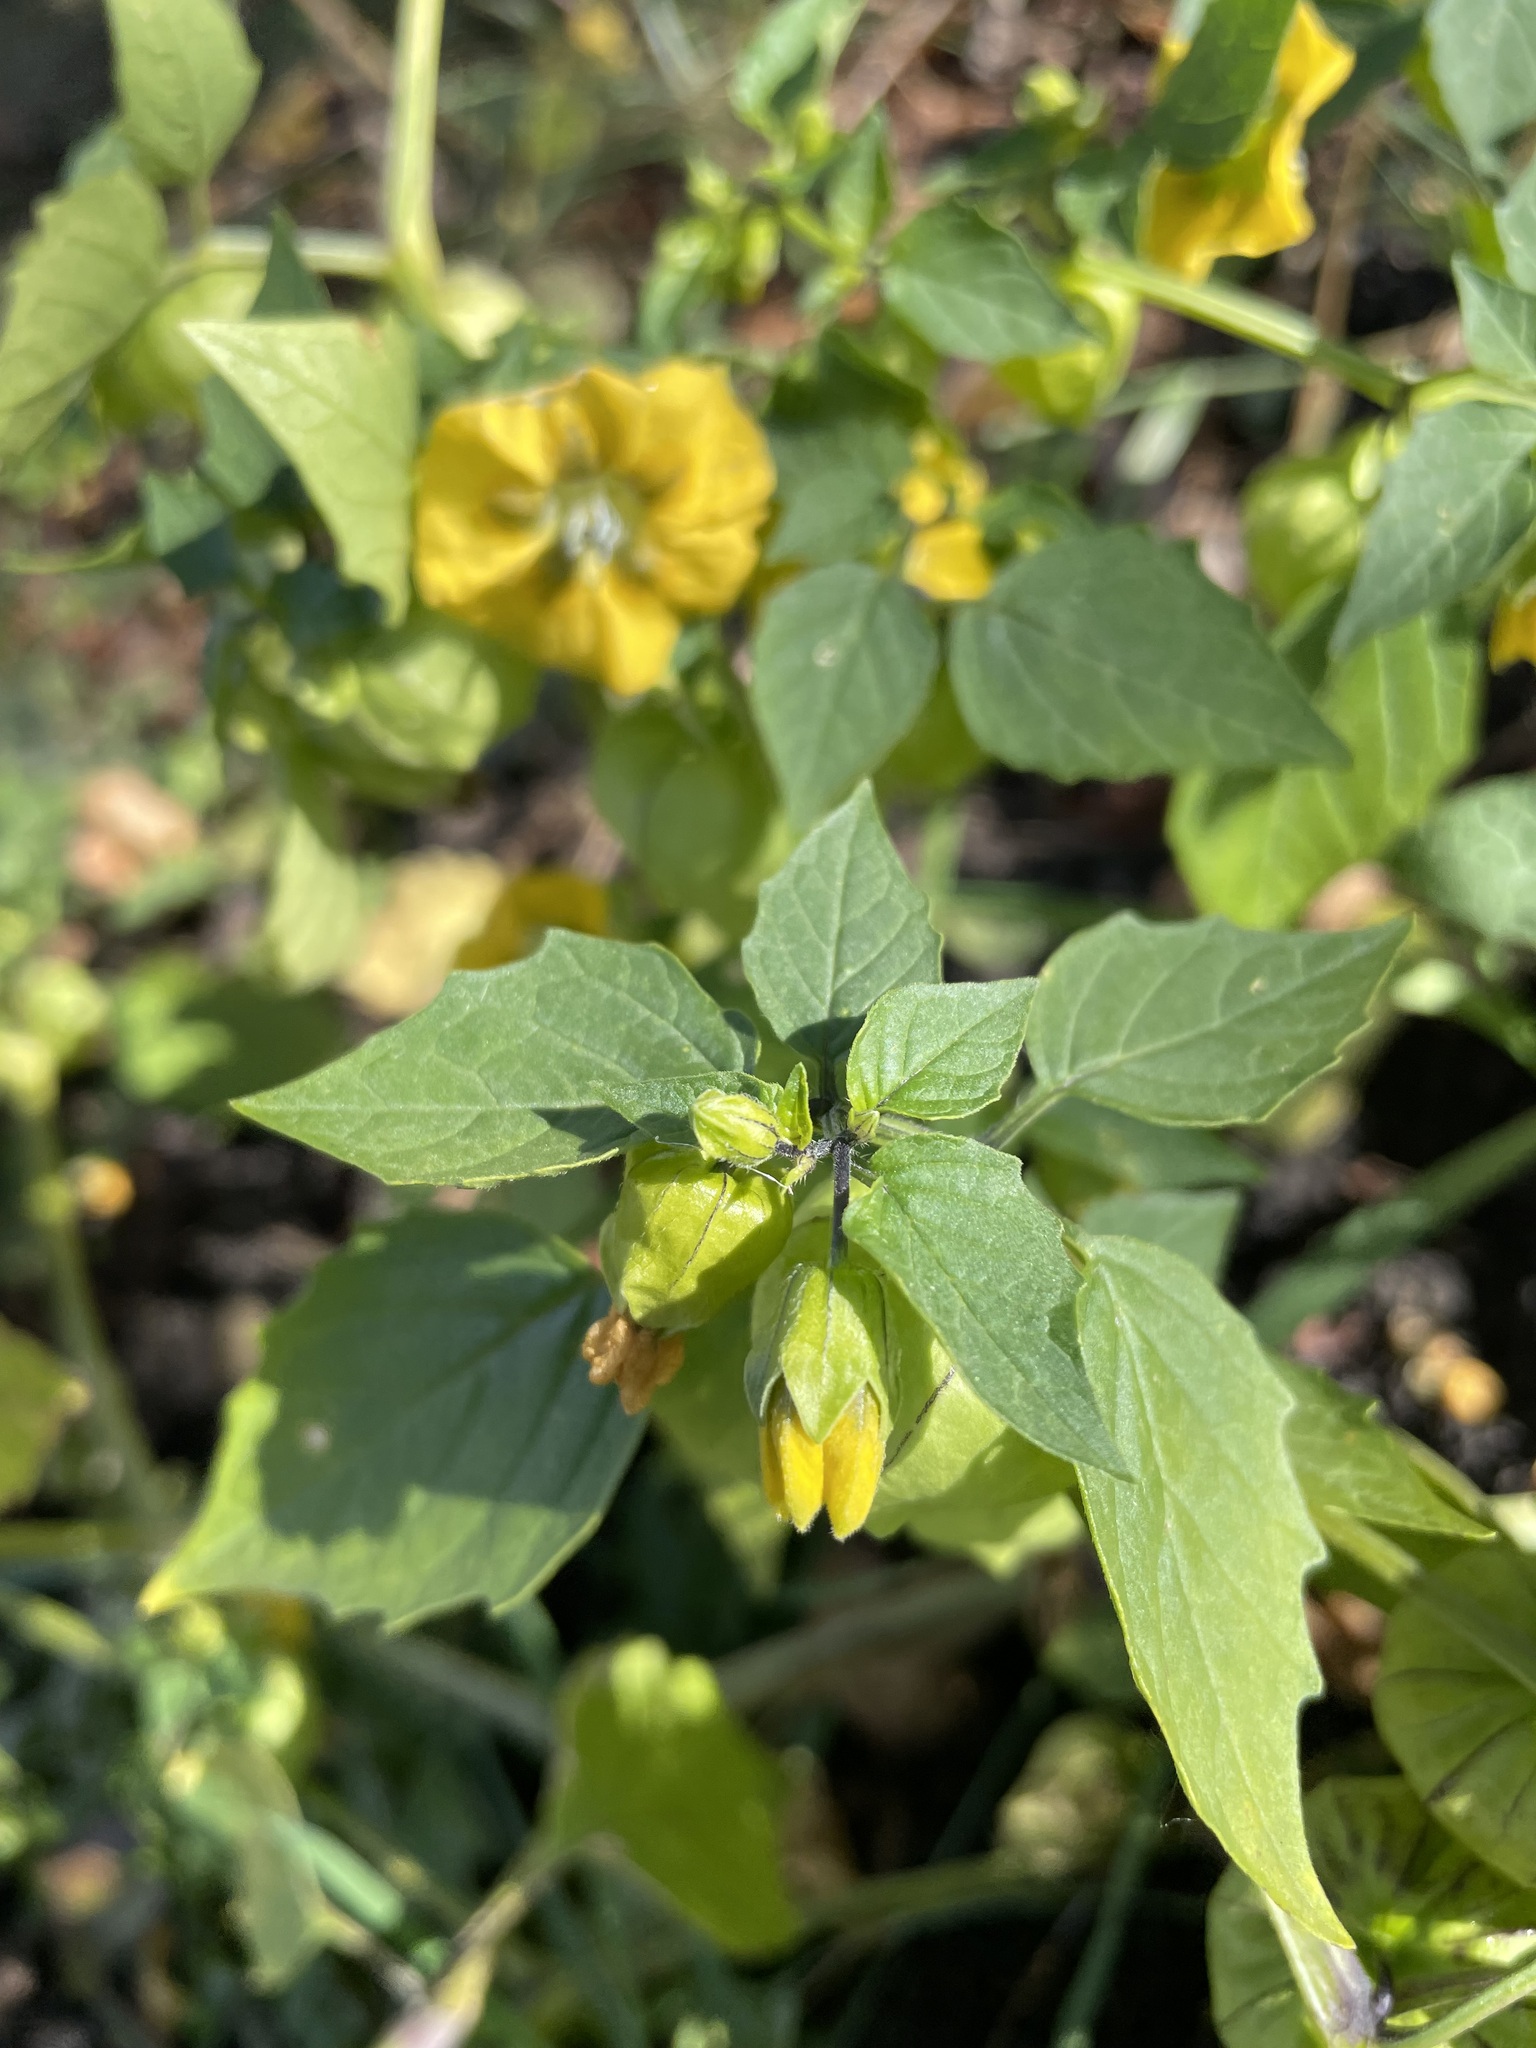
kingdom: Plantae
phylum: Tracheophyta
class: Magnoliopsida
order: Solanales
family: Solanaceae
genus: Physalis
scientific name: Physalis philadelphica
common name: Husk-tomato
